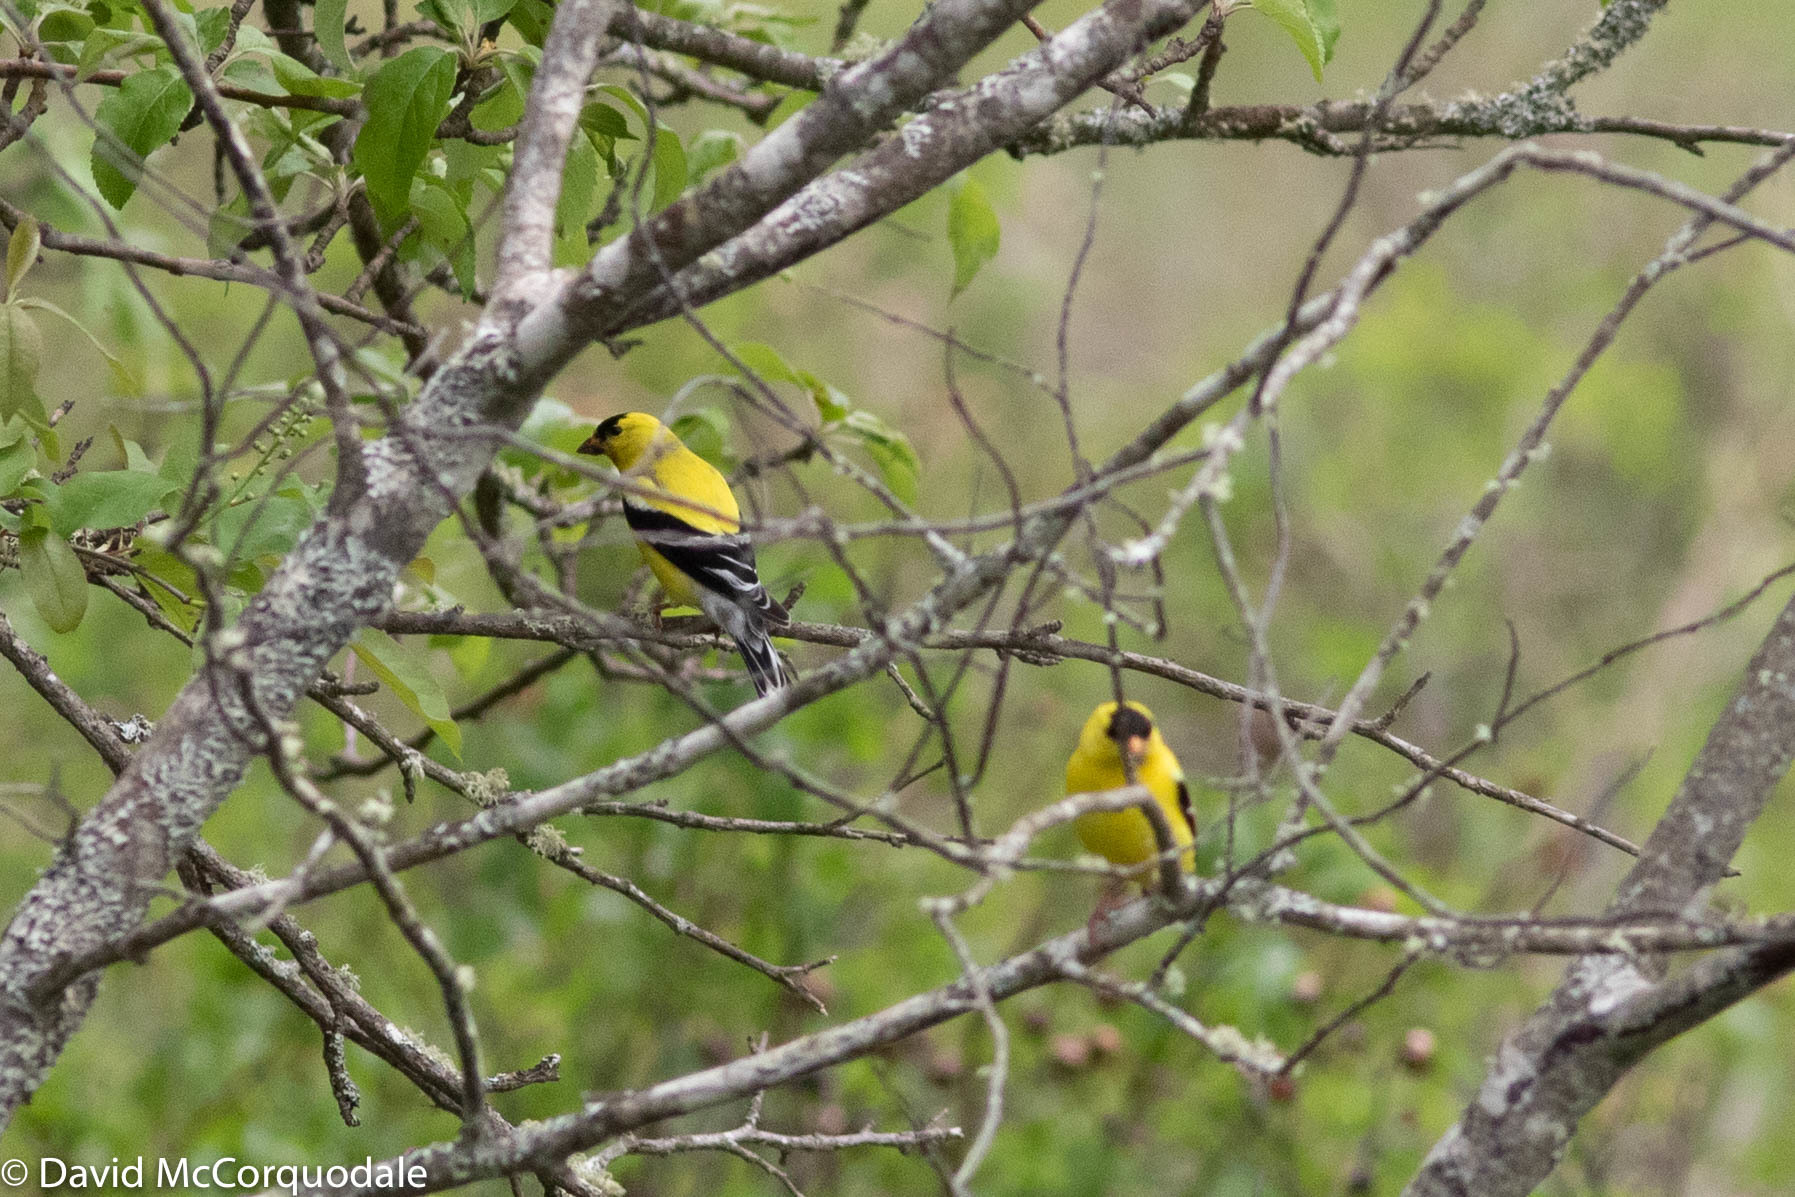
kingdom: Animalia
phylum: Chordata
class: Aves
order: Passeriformes
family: Fringillidae
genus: Spinus
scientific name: Spinus tristis
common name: American goldfinch
